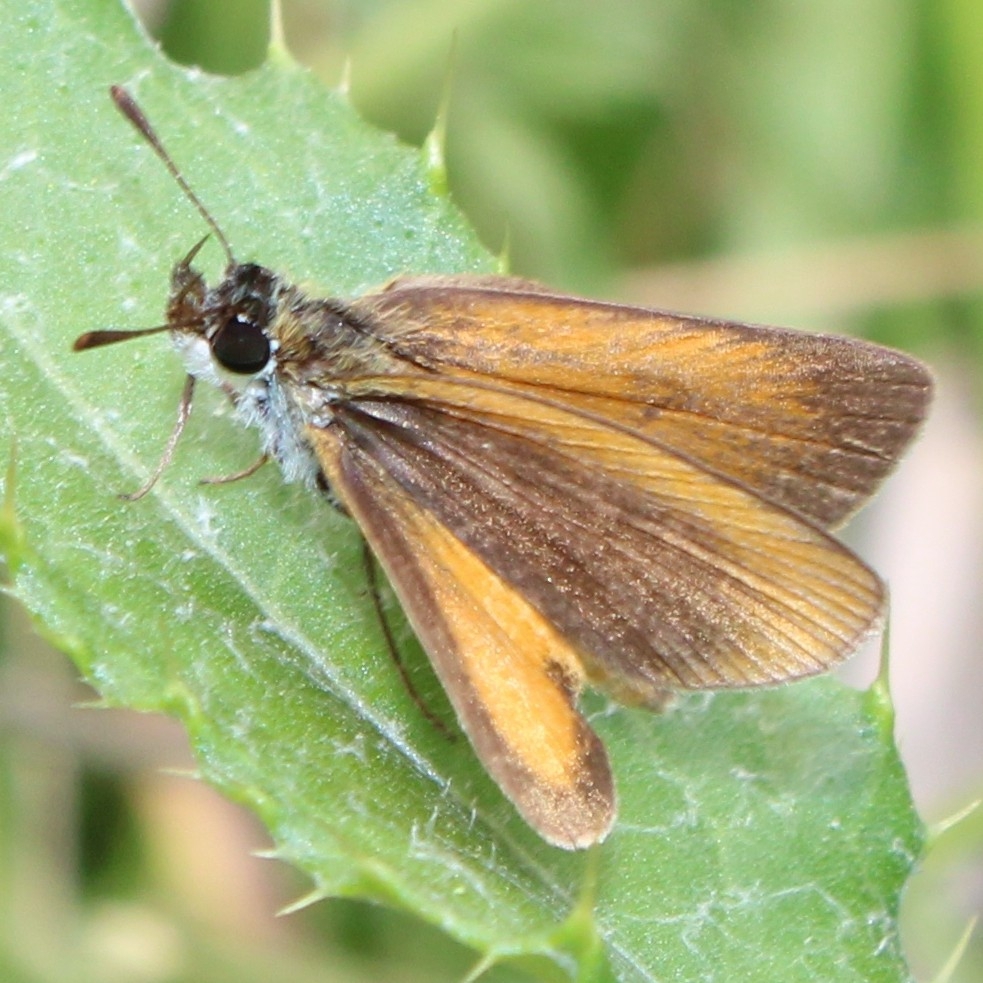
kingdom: Animalia
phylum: Arthropoda
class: Insecta
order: Lepidoptera
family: Hesperiidae
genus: Ancyloxypha
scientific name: Ancyloxypha numitor
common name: Least skipper
